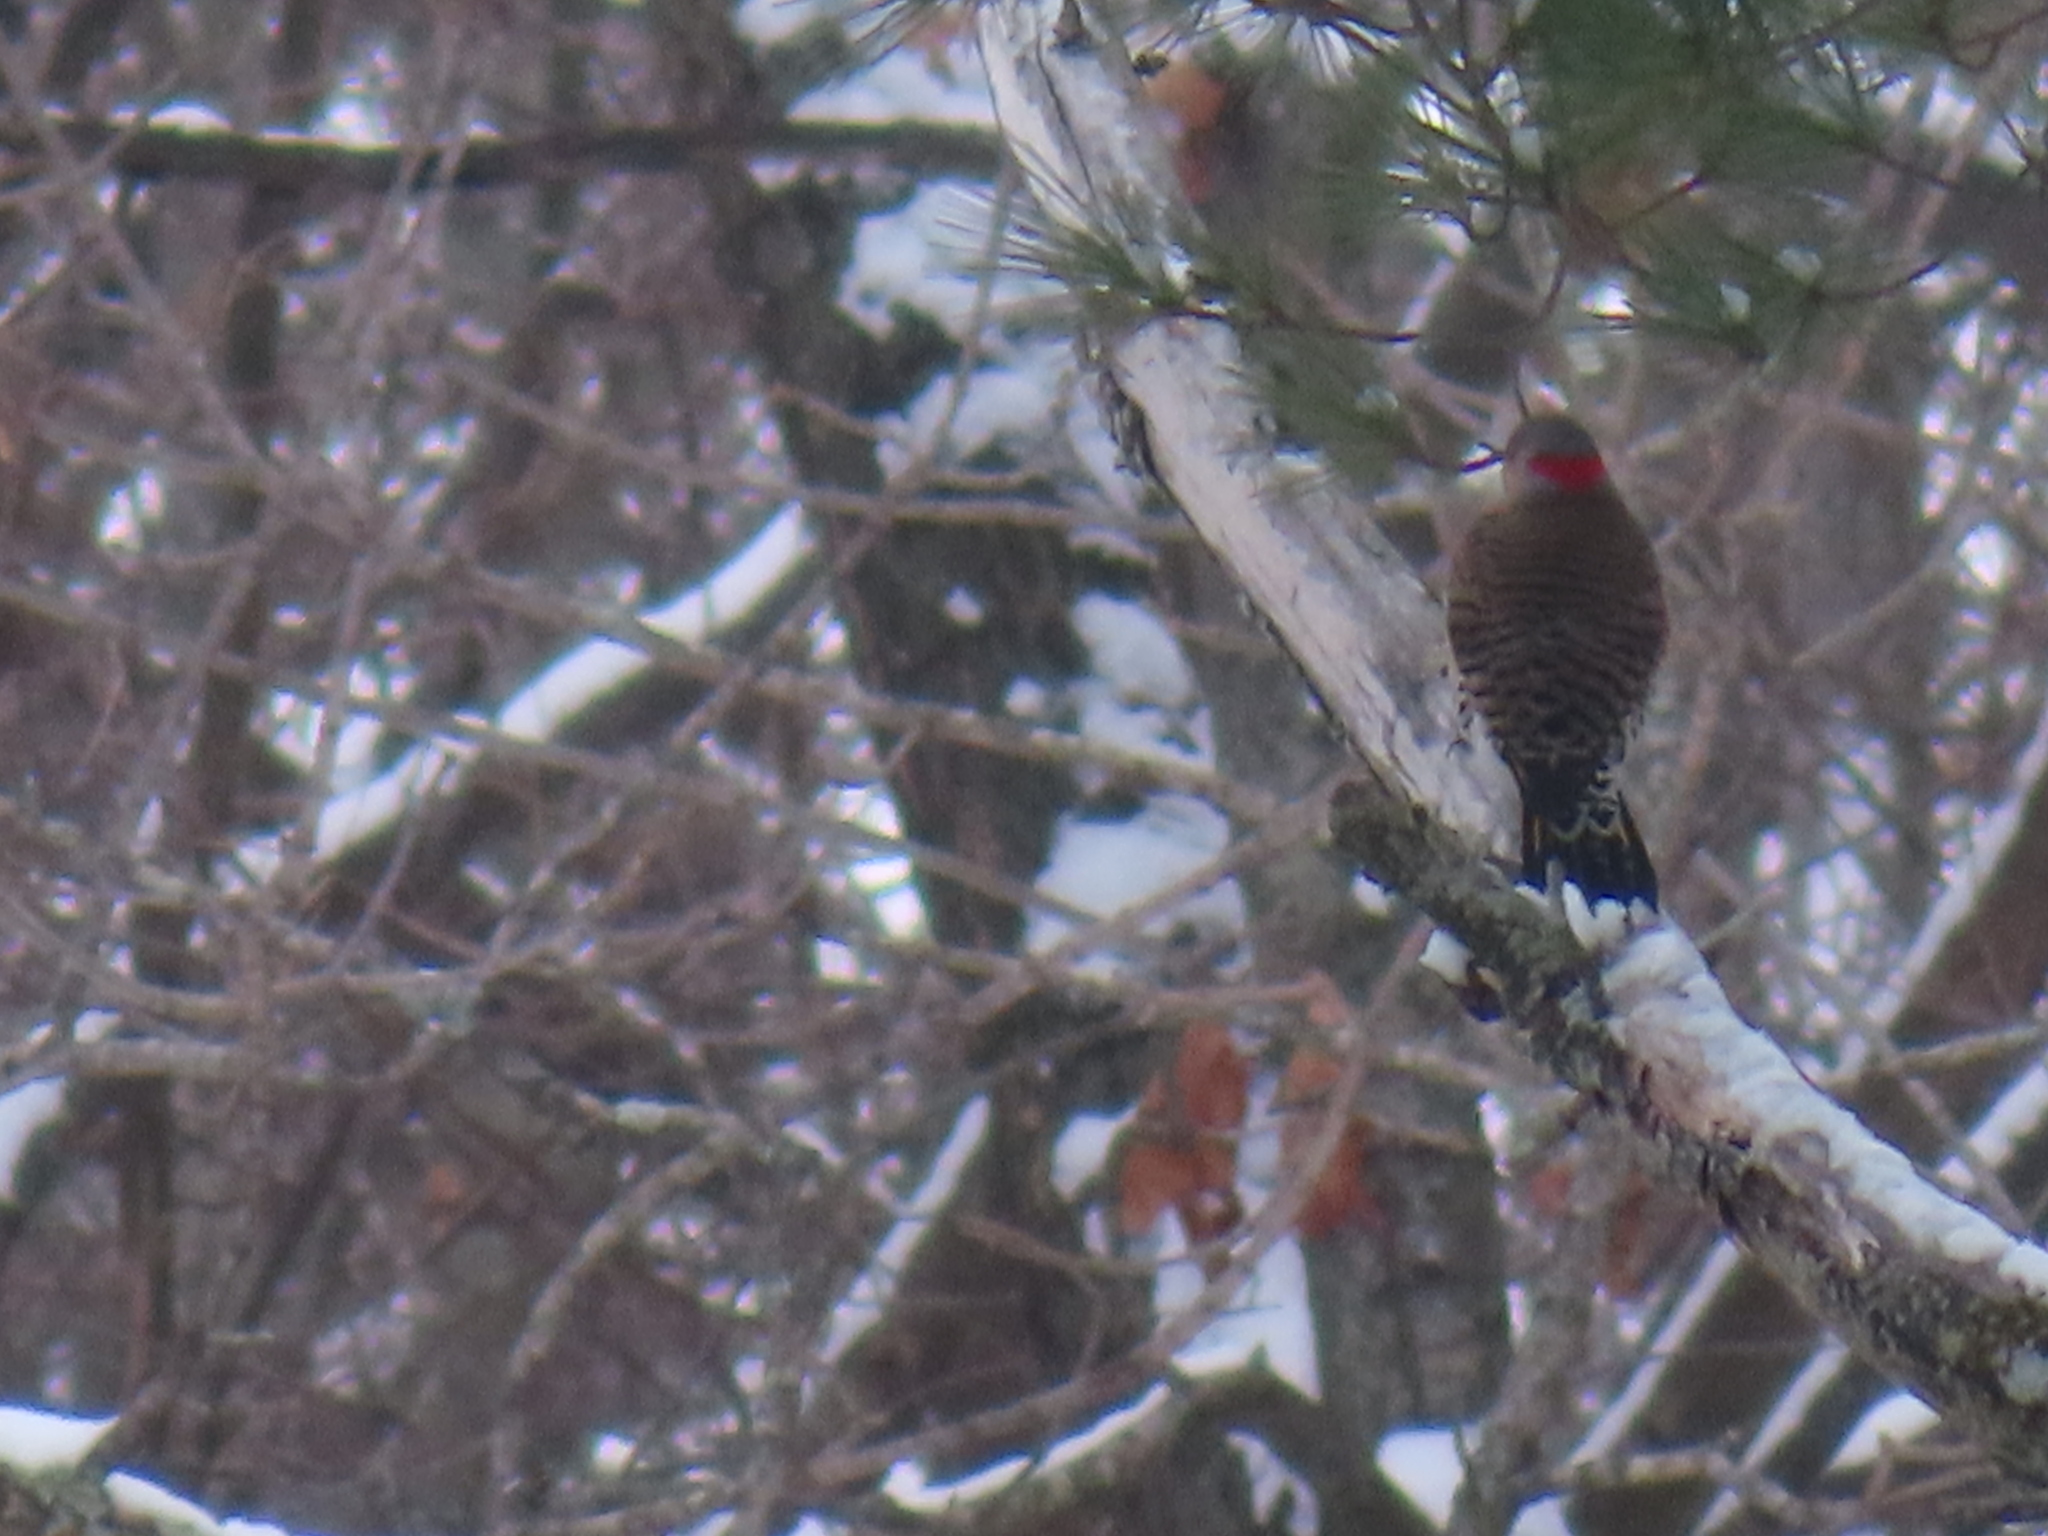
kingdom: Animalia
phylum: Chordata
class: Aves
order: Piciformes
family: Picidae
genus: Colaptes
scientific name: Colaptes auratus
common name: Northern flicker
